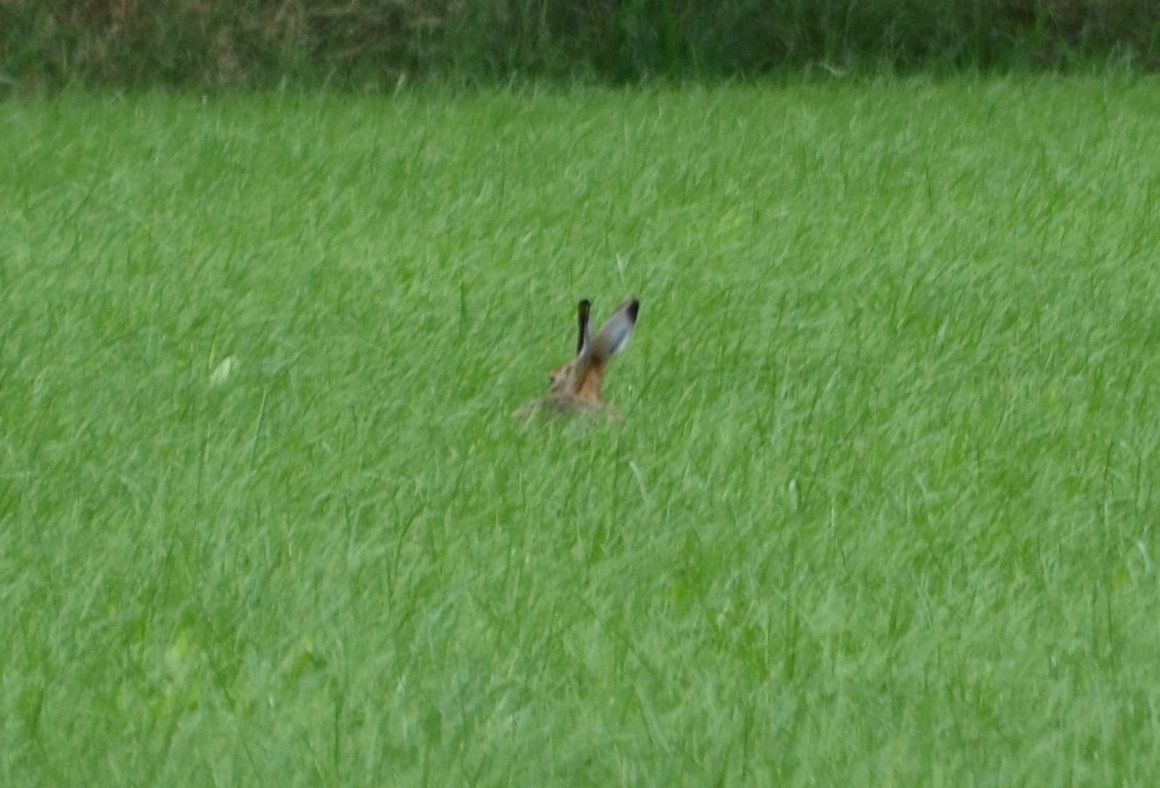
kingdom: Animalia
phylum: Chordata
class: Mammalia
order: Lagomorpha
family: Leporidae
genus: Lepus
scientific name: Lepus europaeus
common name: European hare
